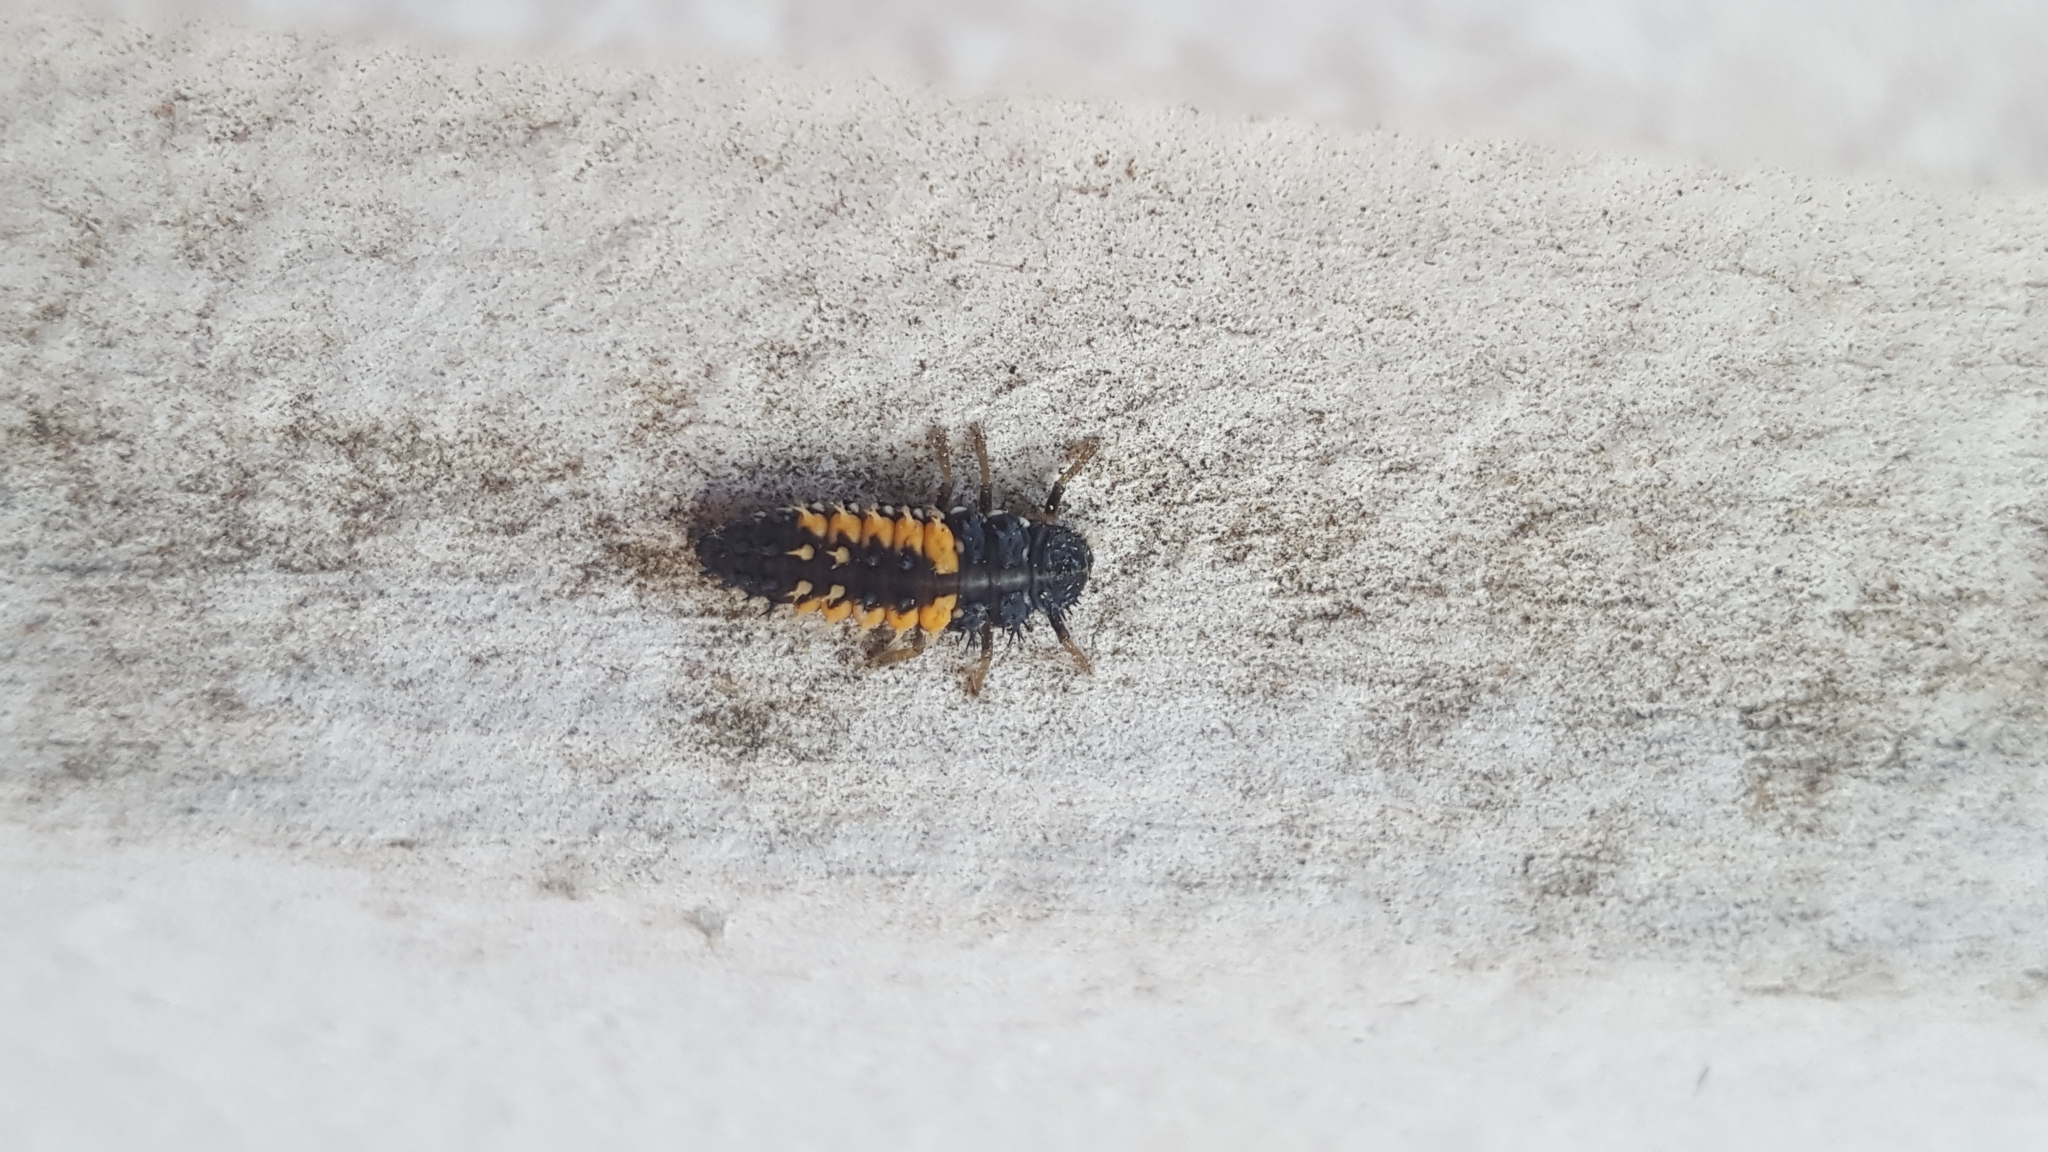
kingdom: Animalia
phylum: Arthropoda
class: Insecta
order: Coleoptera
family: Coccinellidae
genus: Harmonia
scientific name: Harmonia axyridis
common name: Harlequin ladybird
